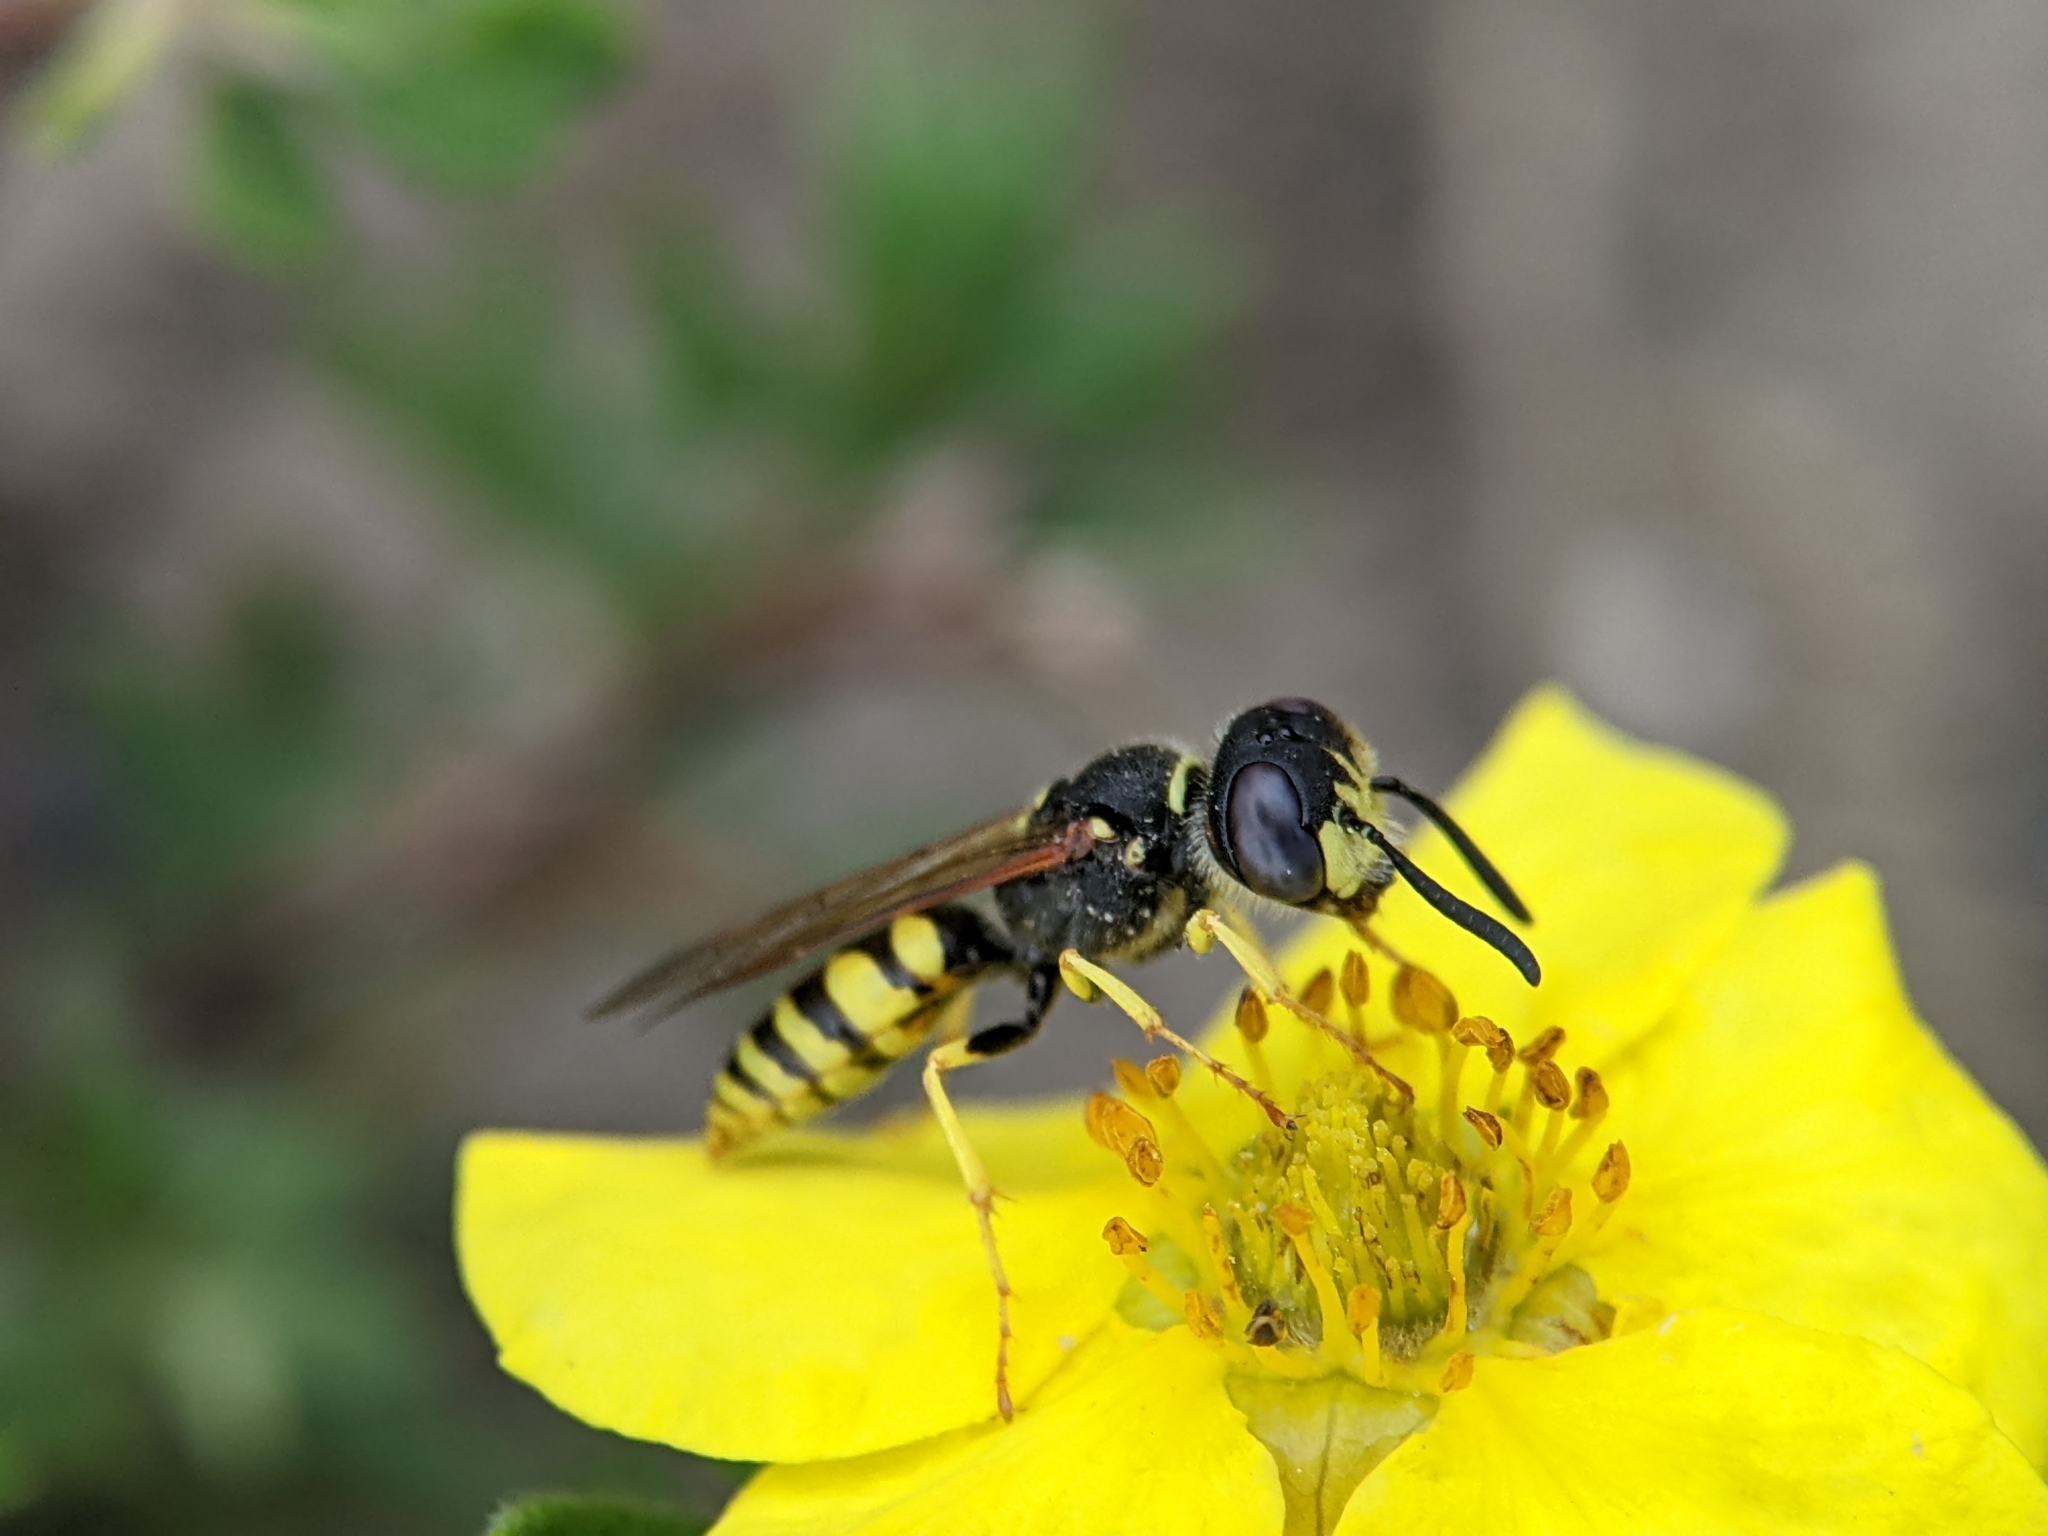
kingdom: Animalia
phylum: Arthropoda
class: Insecta
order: Hymenoptera
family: Crabronidae
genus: Philanthus
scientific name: Philanthus triangulum
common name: Bee wolf
